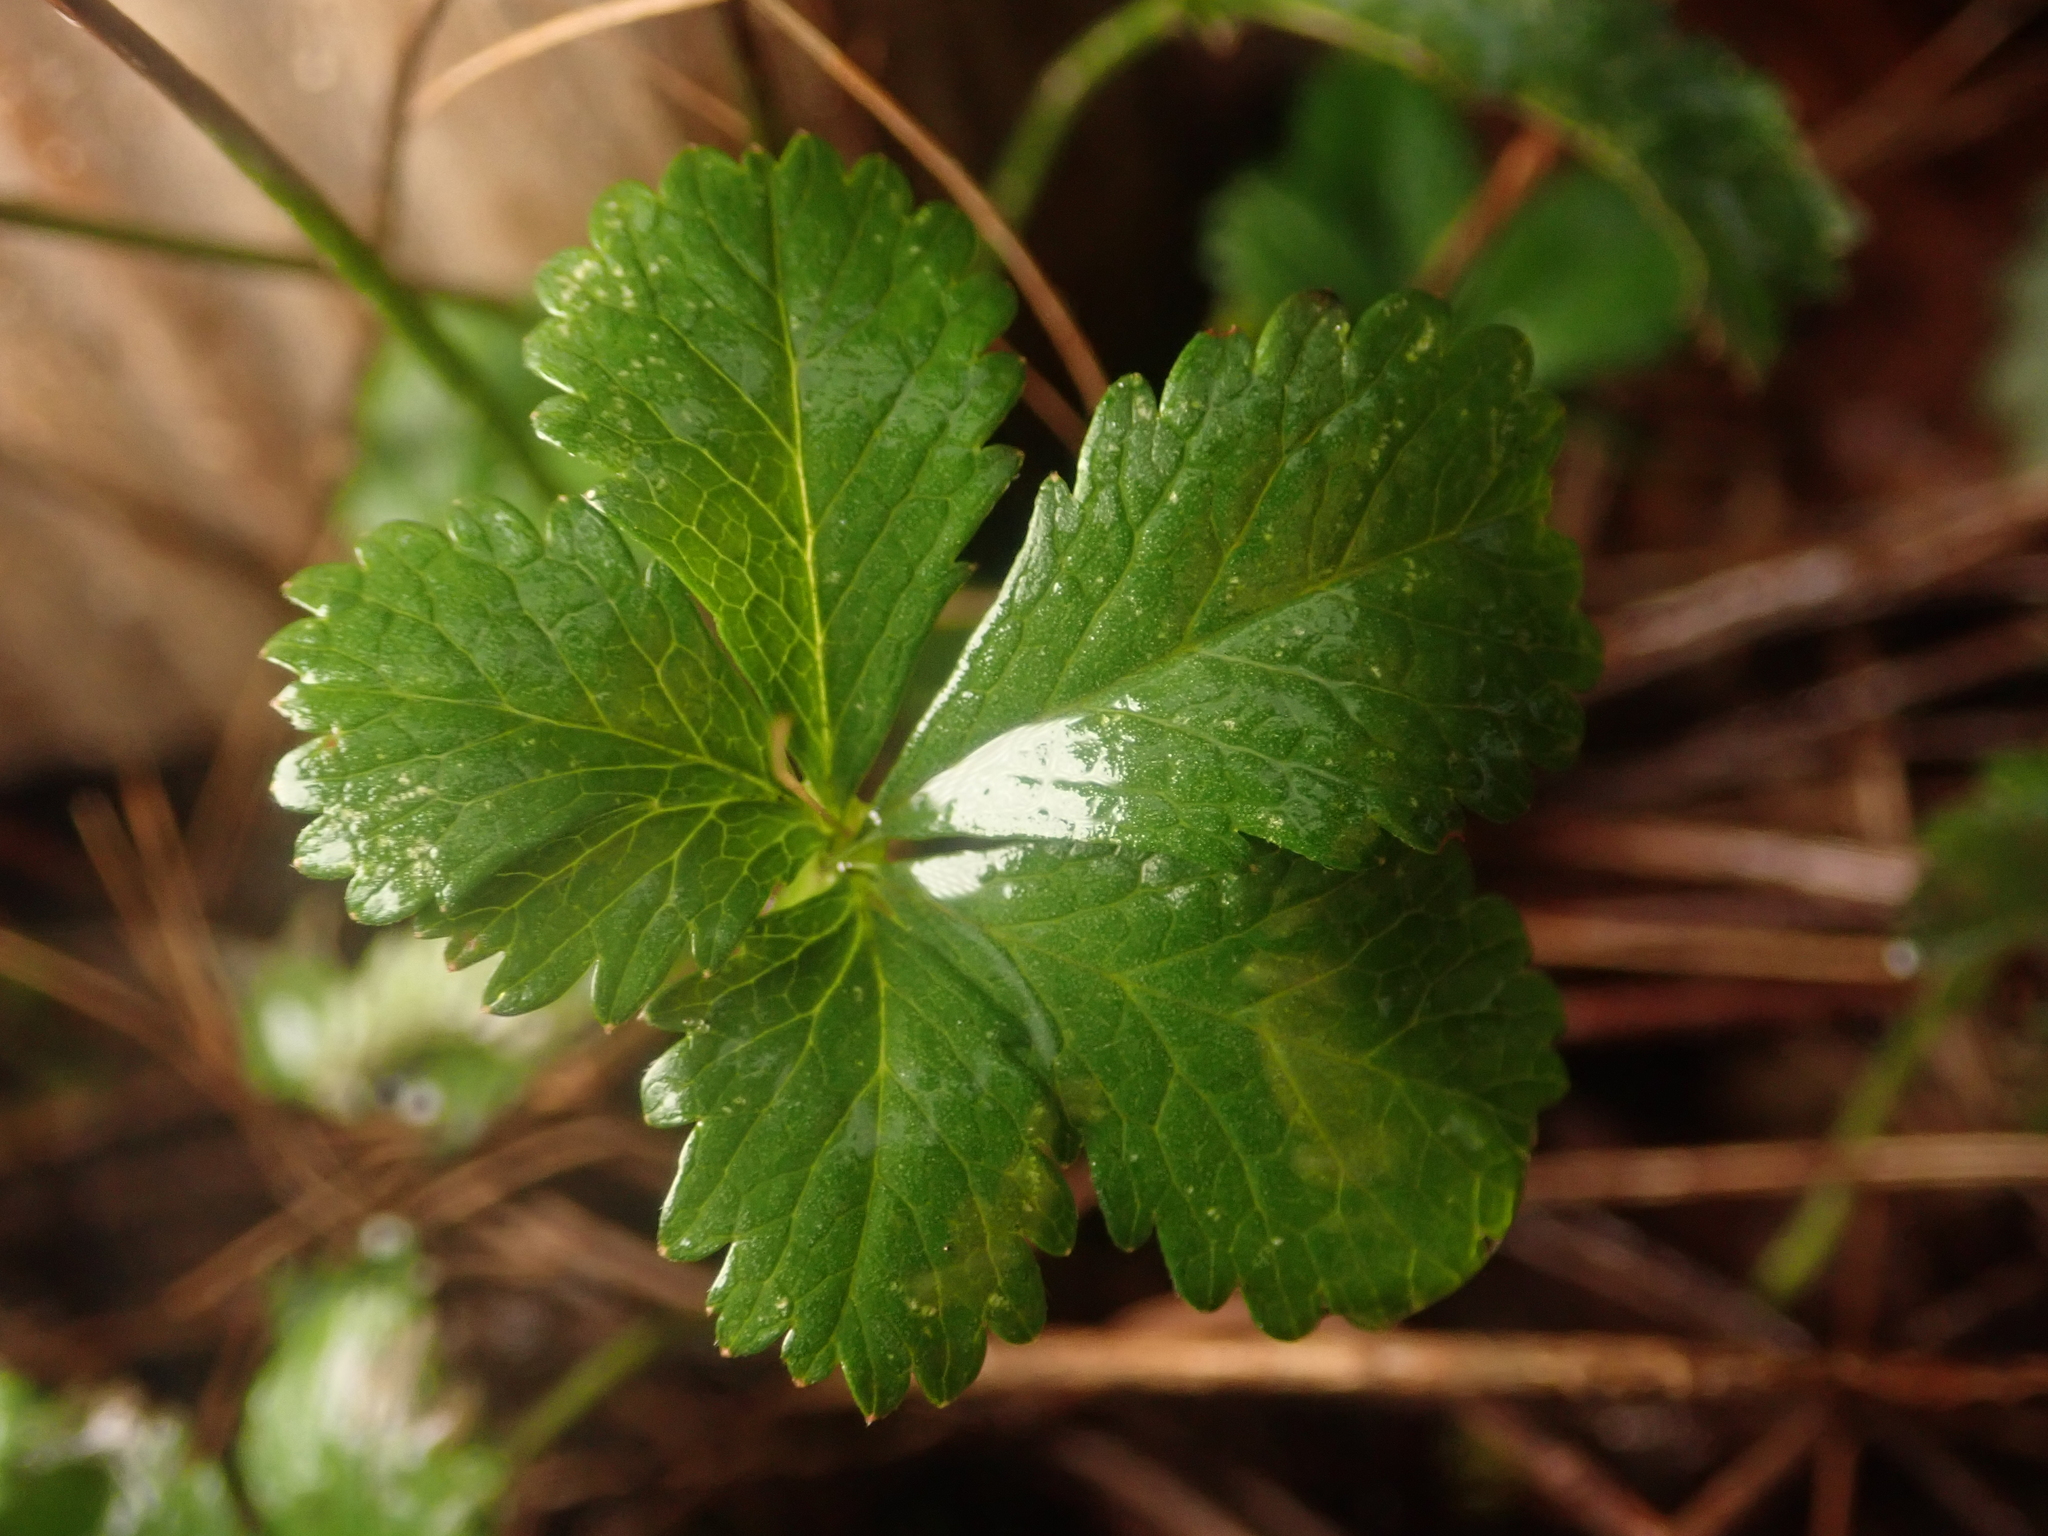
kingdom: Plantae
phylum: Tracheophyta
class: Magnoliopsida
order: Rosales
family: Rosaceae
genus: Potentilla
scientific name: Potentilla reptans
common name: Creeping cinquefoil
